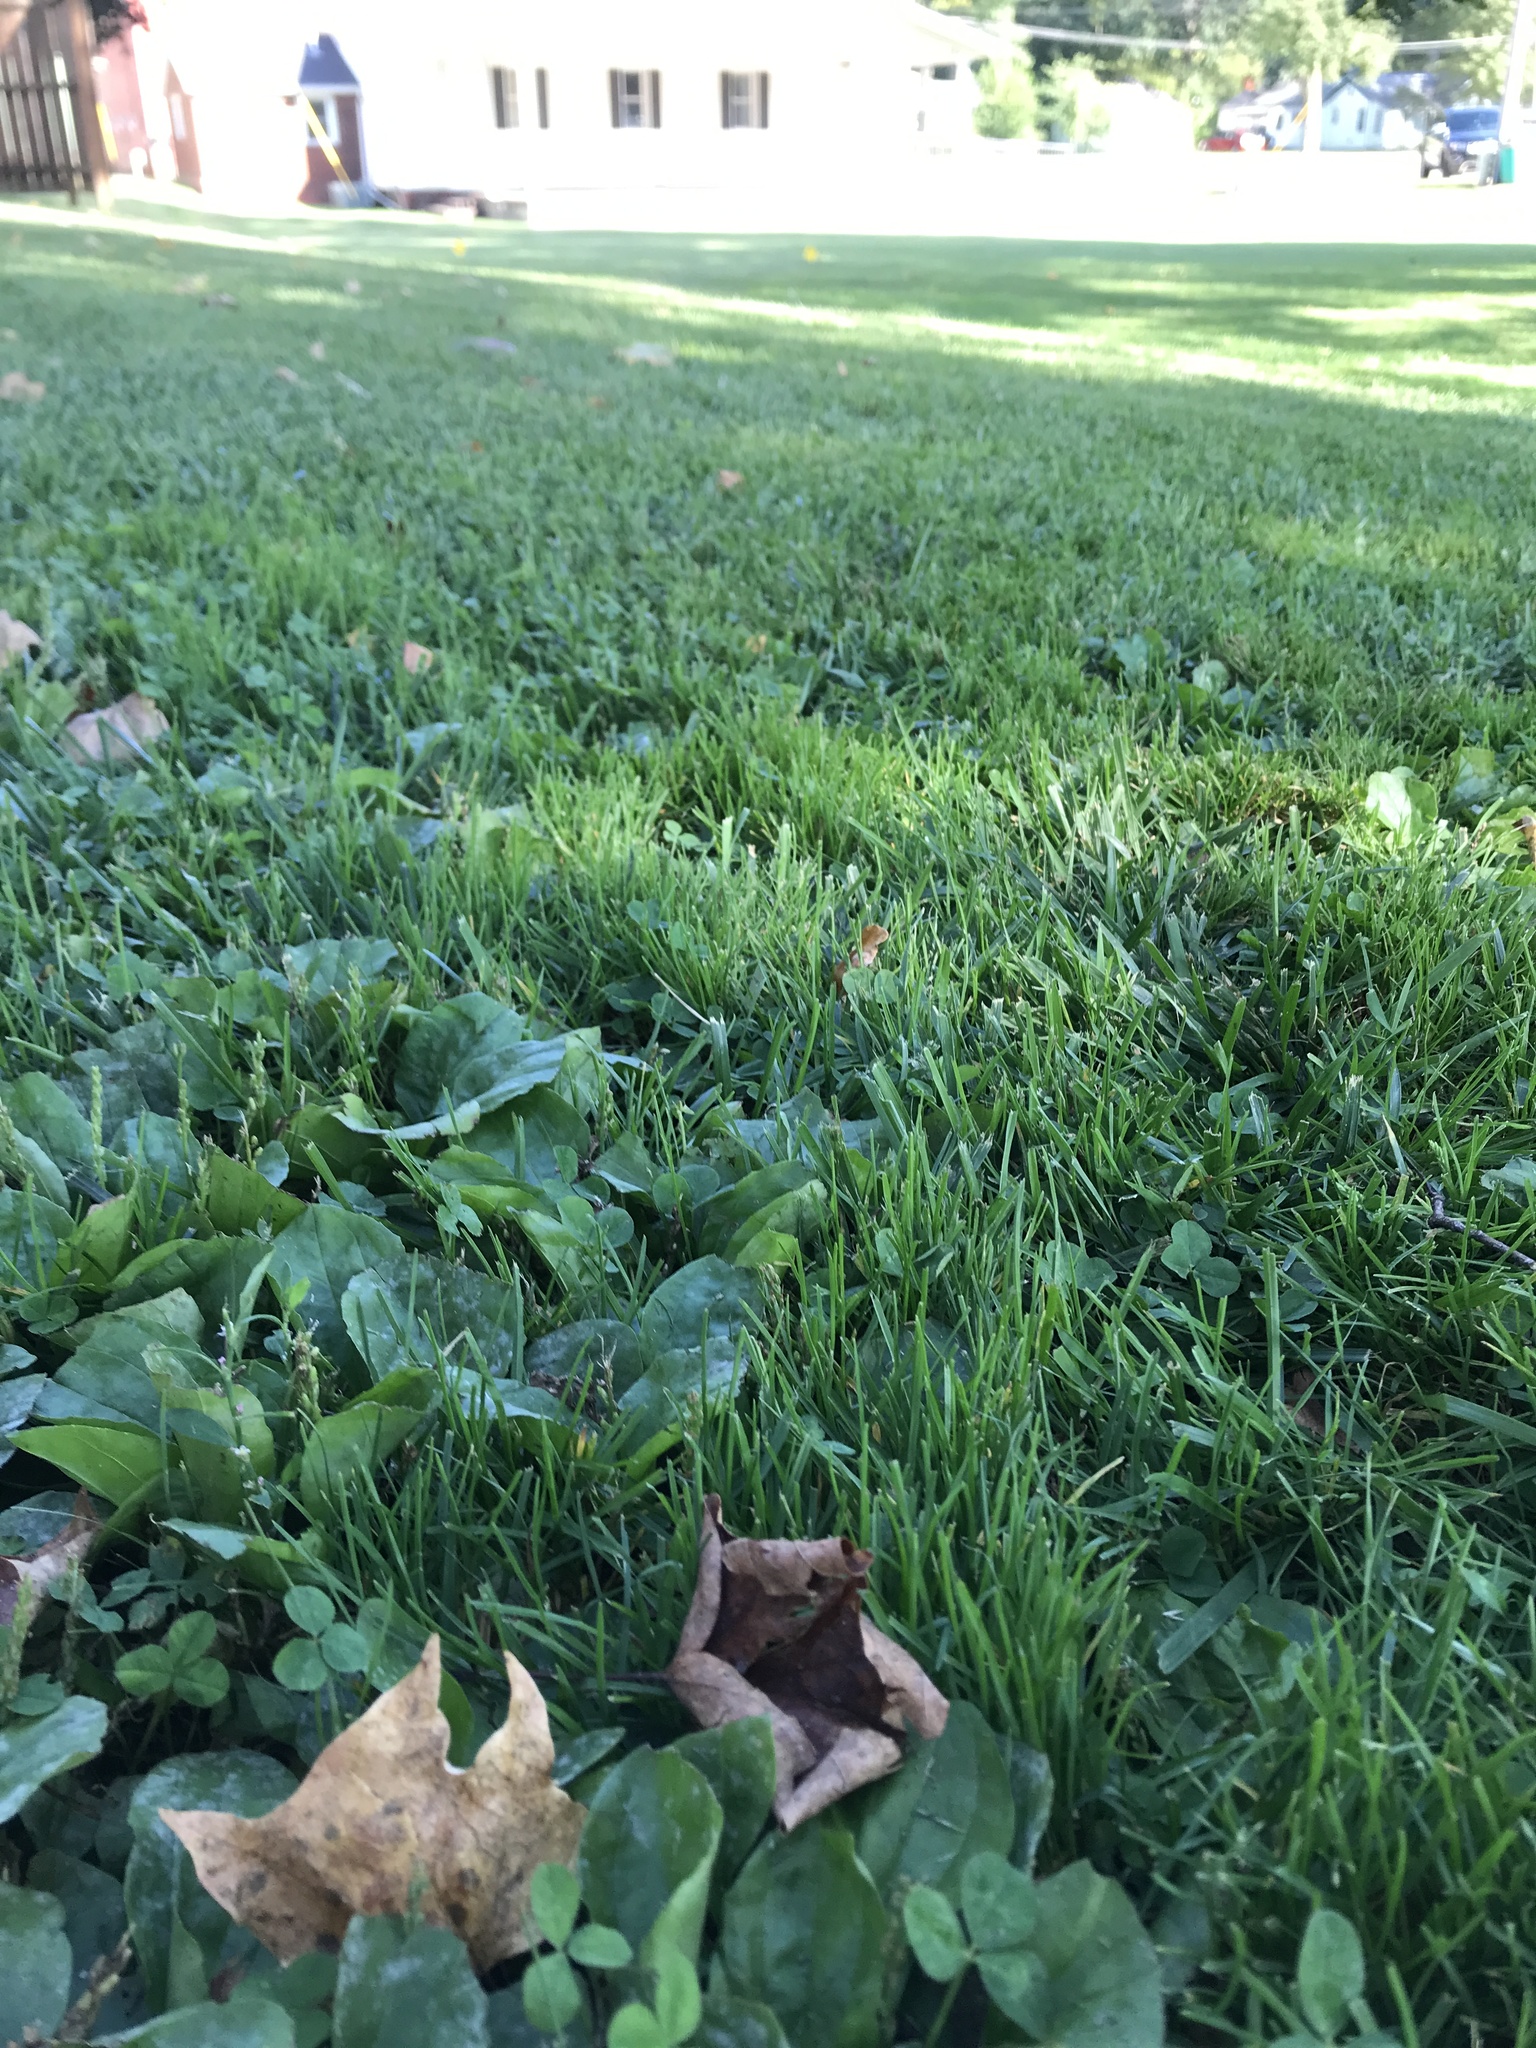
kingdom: Plantae
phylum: Tracheophyta
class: Magnoliopsida
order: Lamiales
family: Plantaginaceae
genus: Plantago
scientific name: Plantago major
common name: Common plantain
